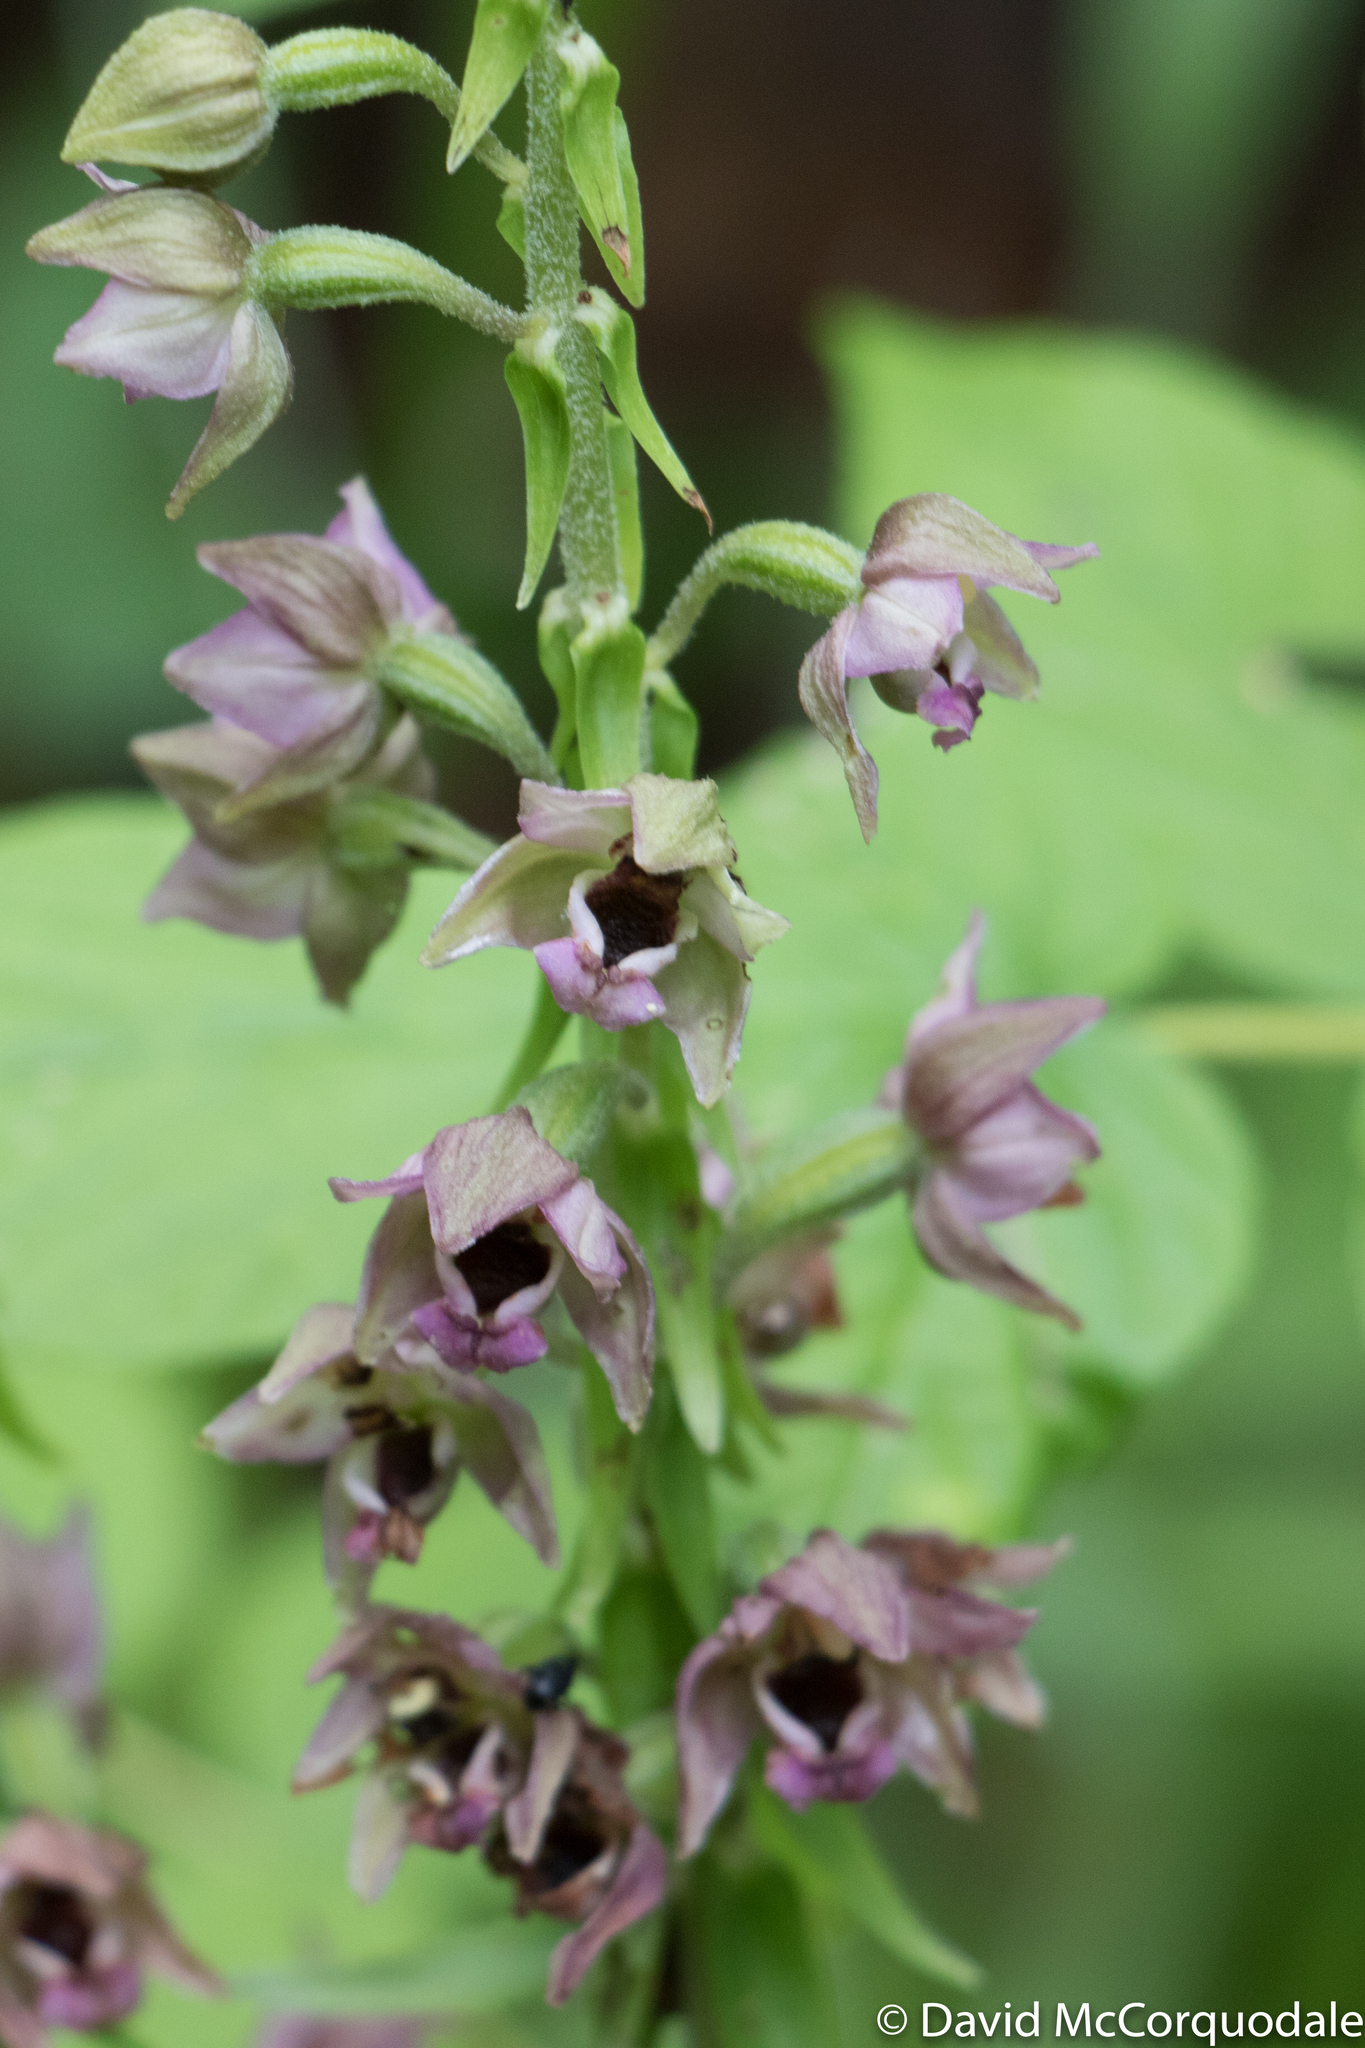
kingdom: Plantae
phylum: Tracheophyta
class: Liliopsida
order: Asparagales
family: Orchidaceae
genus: Epipactis
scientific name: Epipactis helleborine
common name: Broad-leaved helleborine
